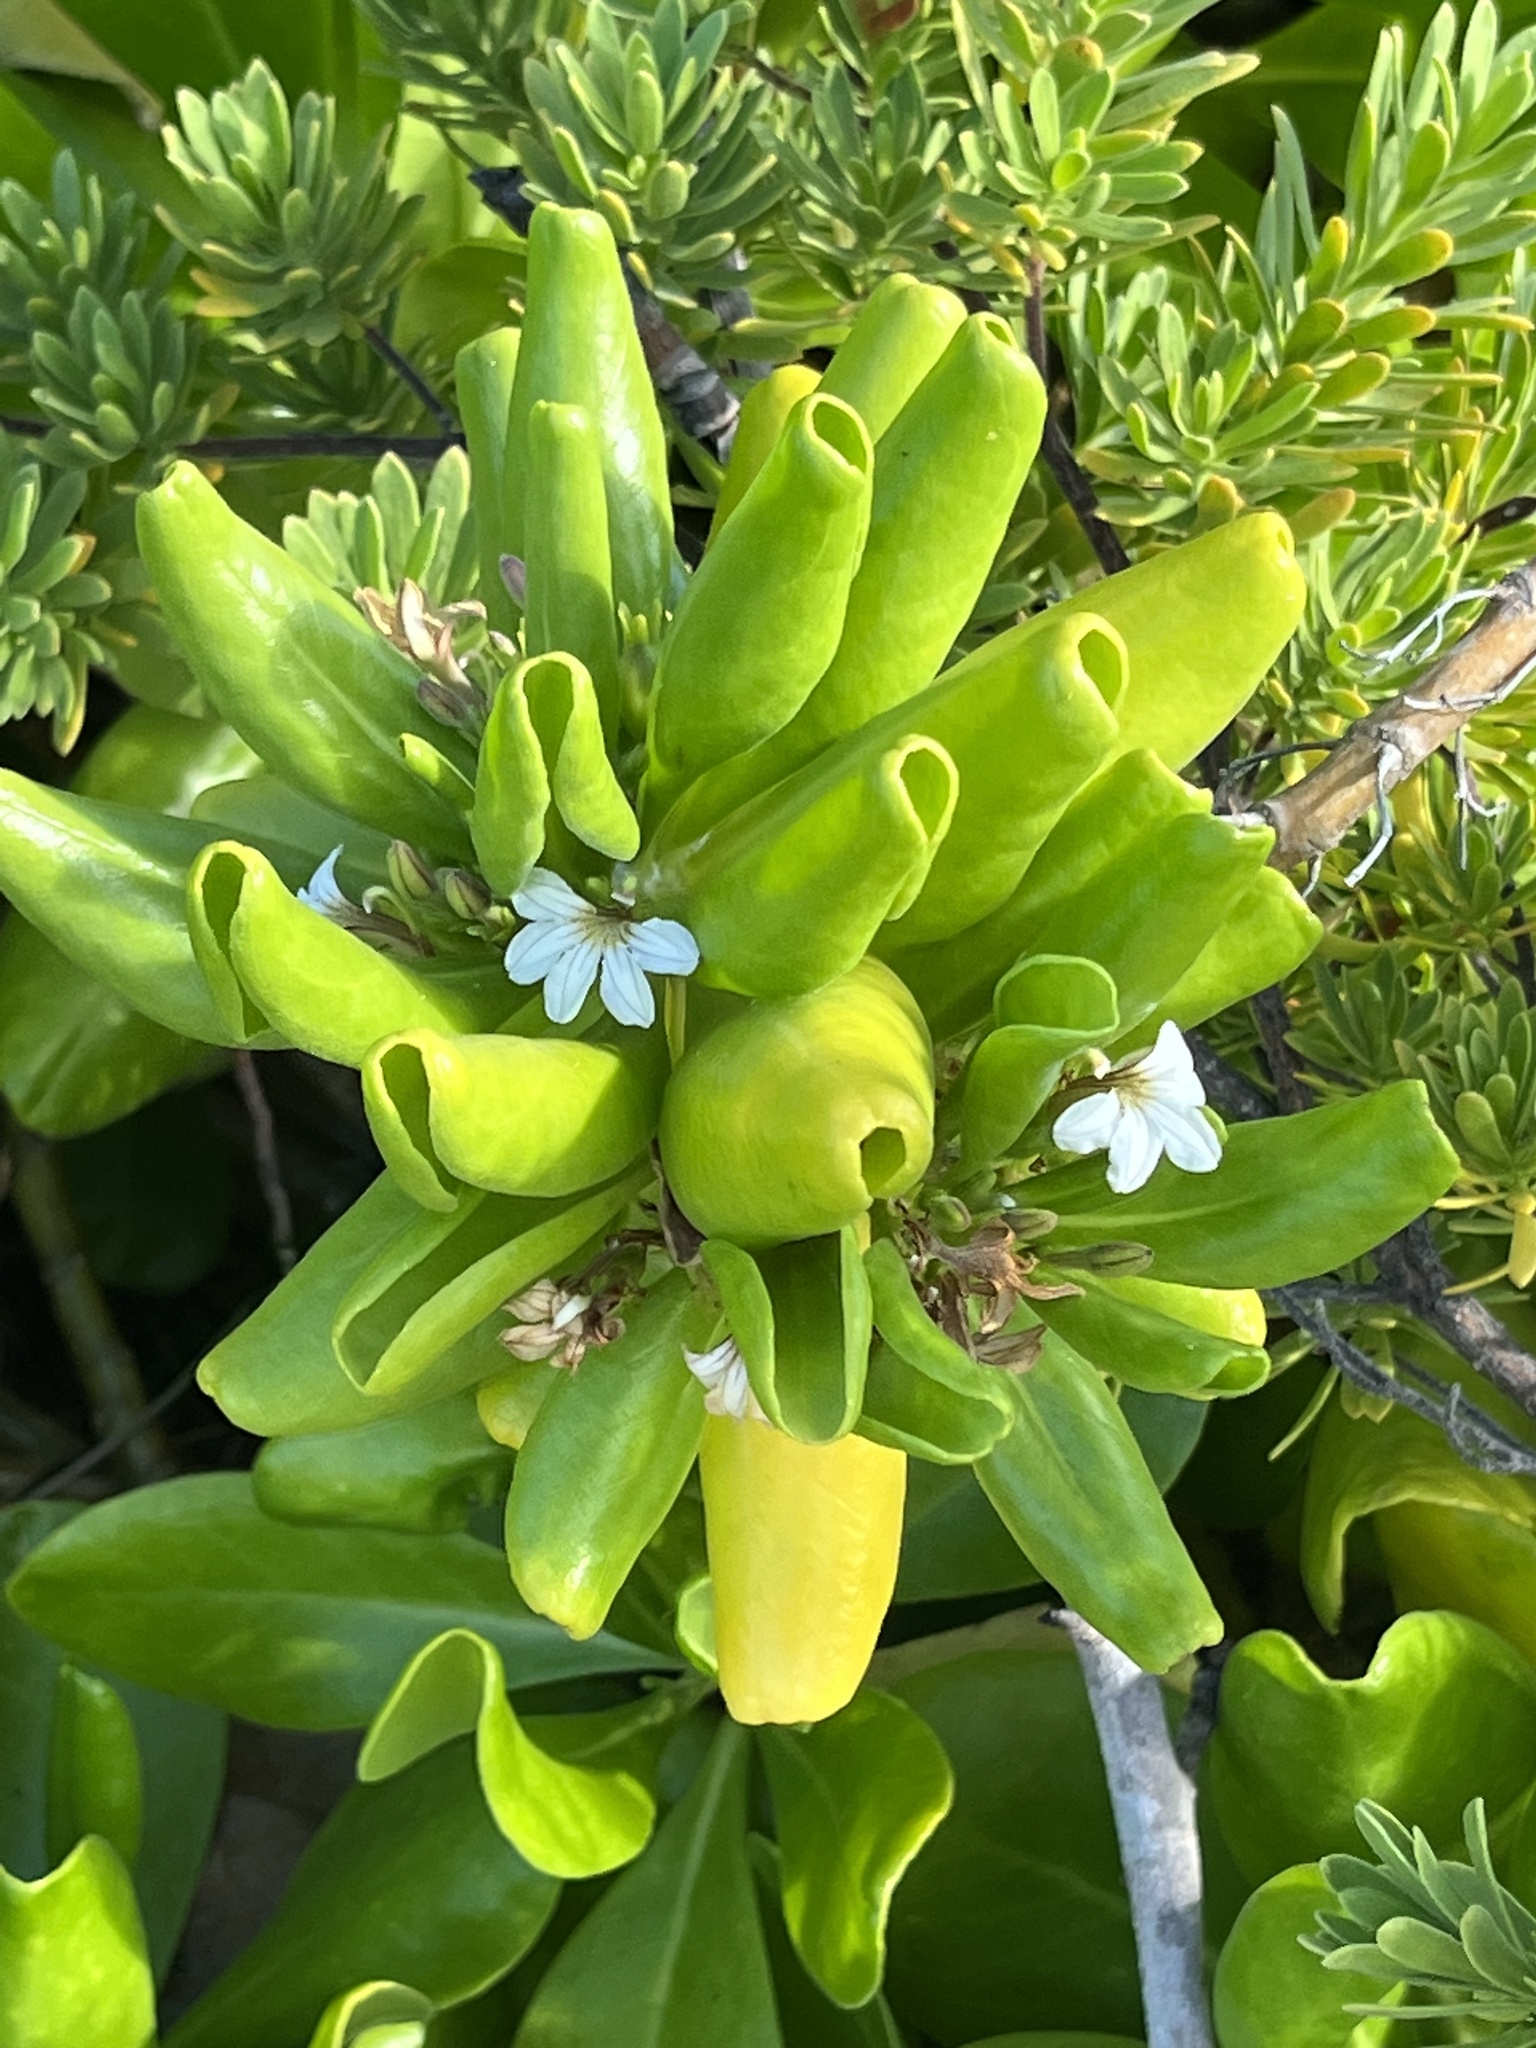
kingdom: Plantae
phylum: Tracheophyta
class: Magnoliopsida
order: Asterales
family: Goodeniaceae
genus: Scaevola
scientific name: Scaevola taccada
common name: Sea lettucetree
